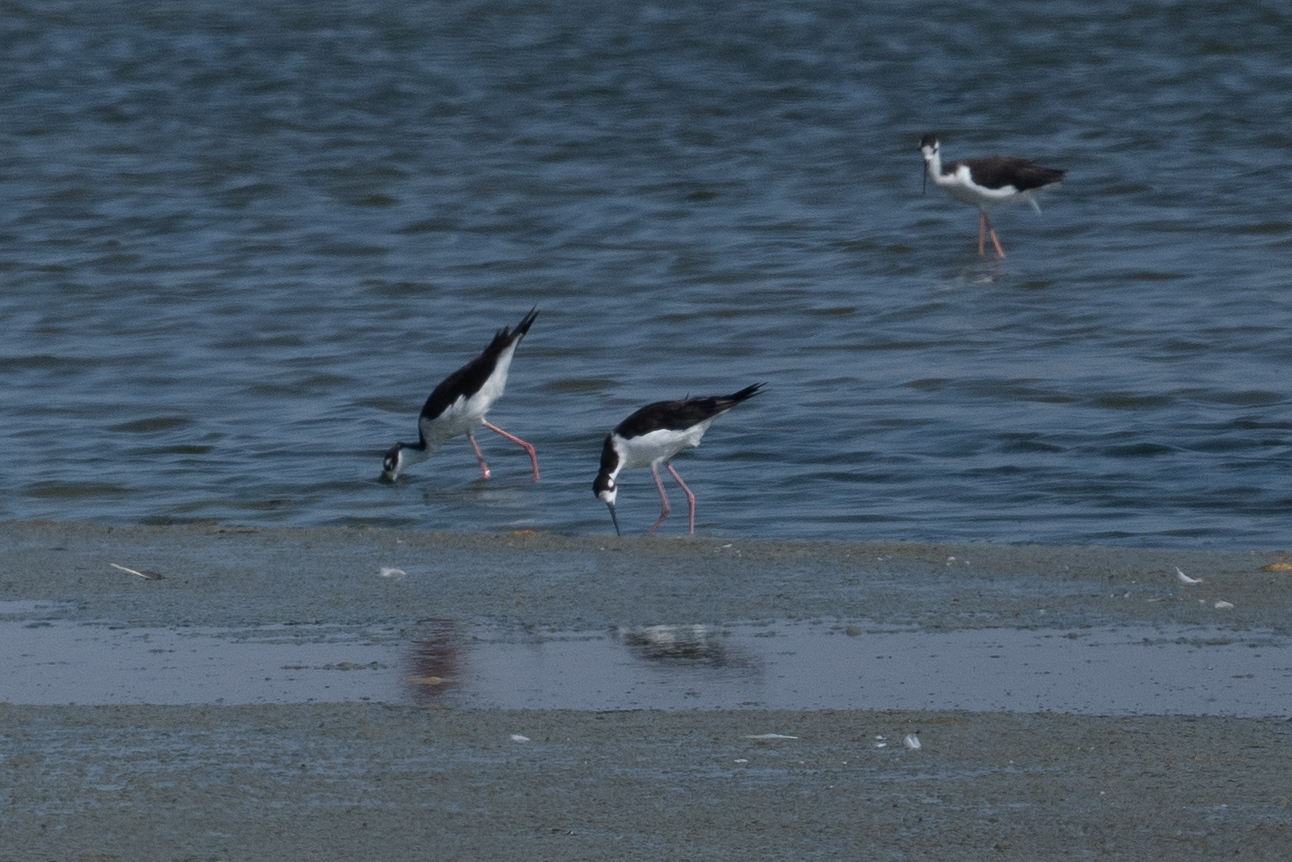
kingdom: Animalia
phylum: Chordata
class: Aves
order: Charadriiformes
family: Recurvirostridae
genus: Himantopus
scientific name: Himantopus mexicanus
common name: Black-necked stilt
